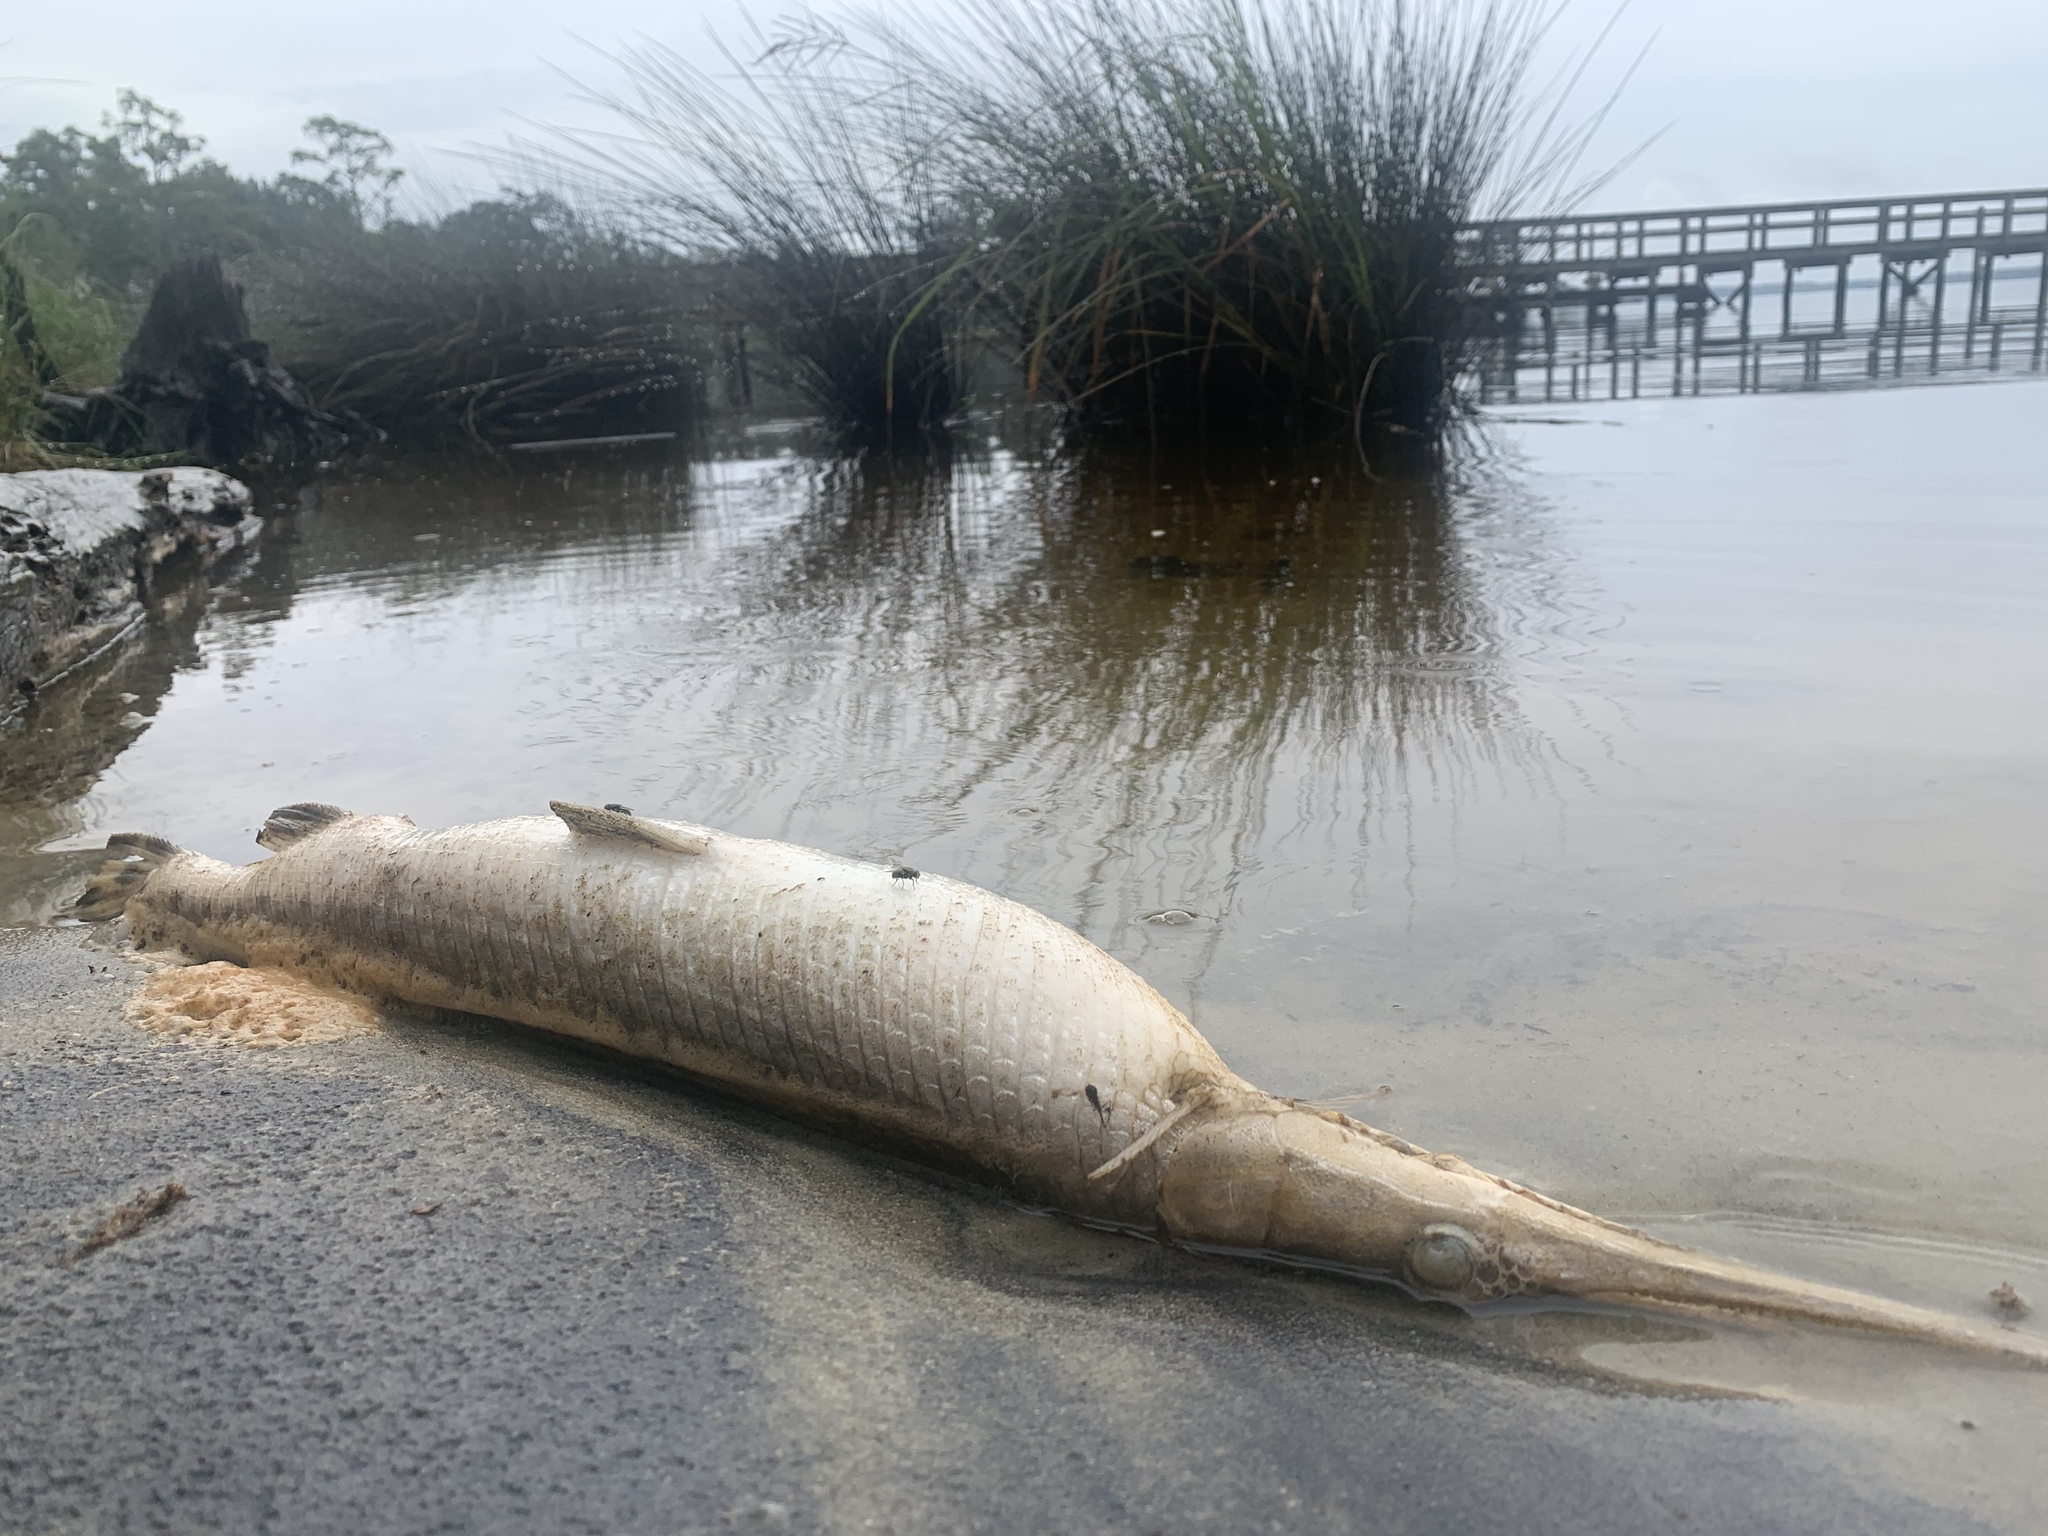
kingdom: Animalia
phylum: Chordata
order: Lepisosteiformes
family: Lepisosteidae
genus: Lepisosteus
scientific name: Lepisosteus osseus
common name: Longnose gar
